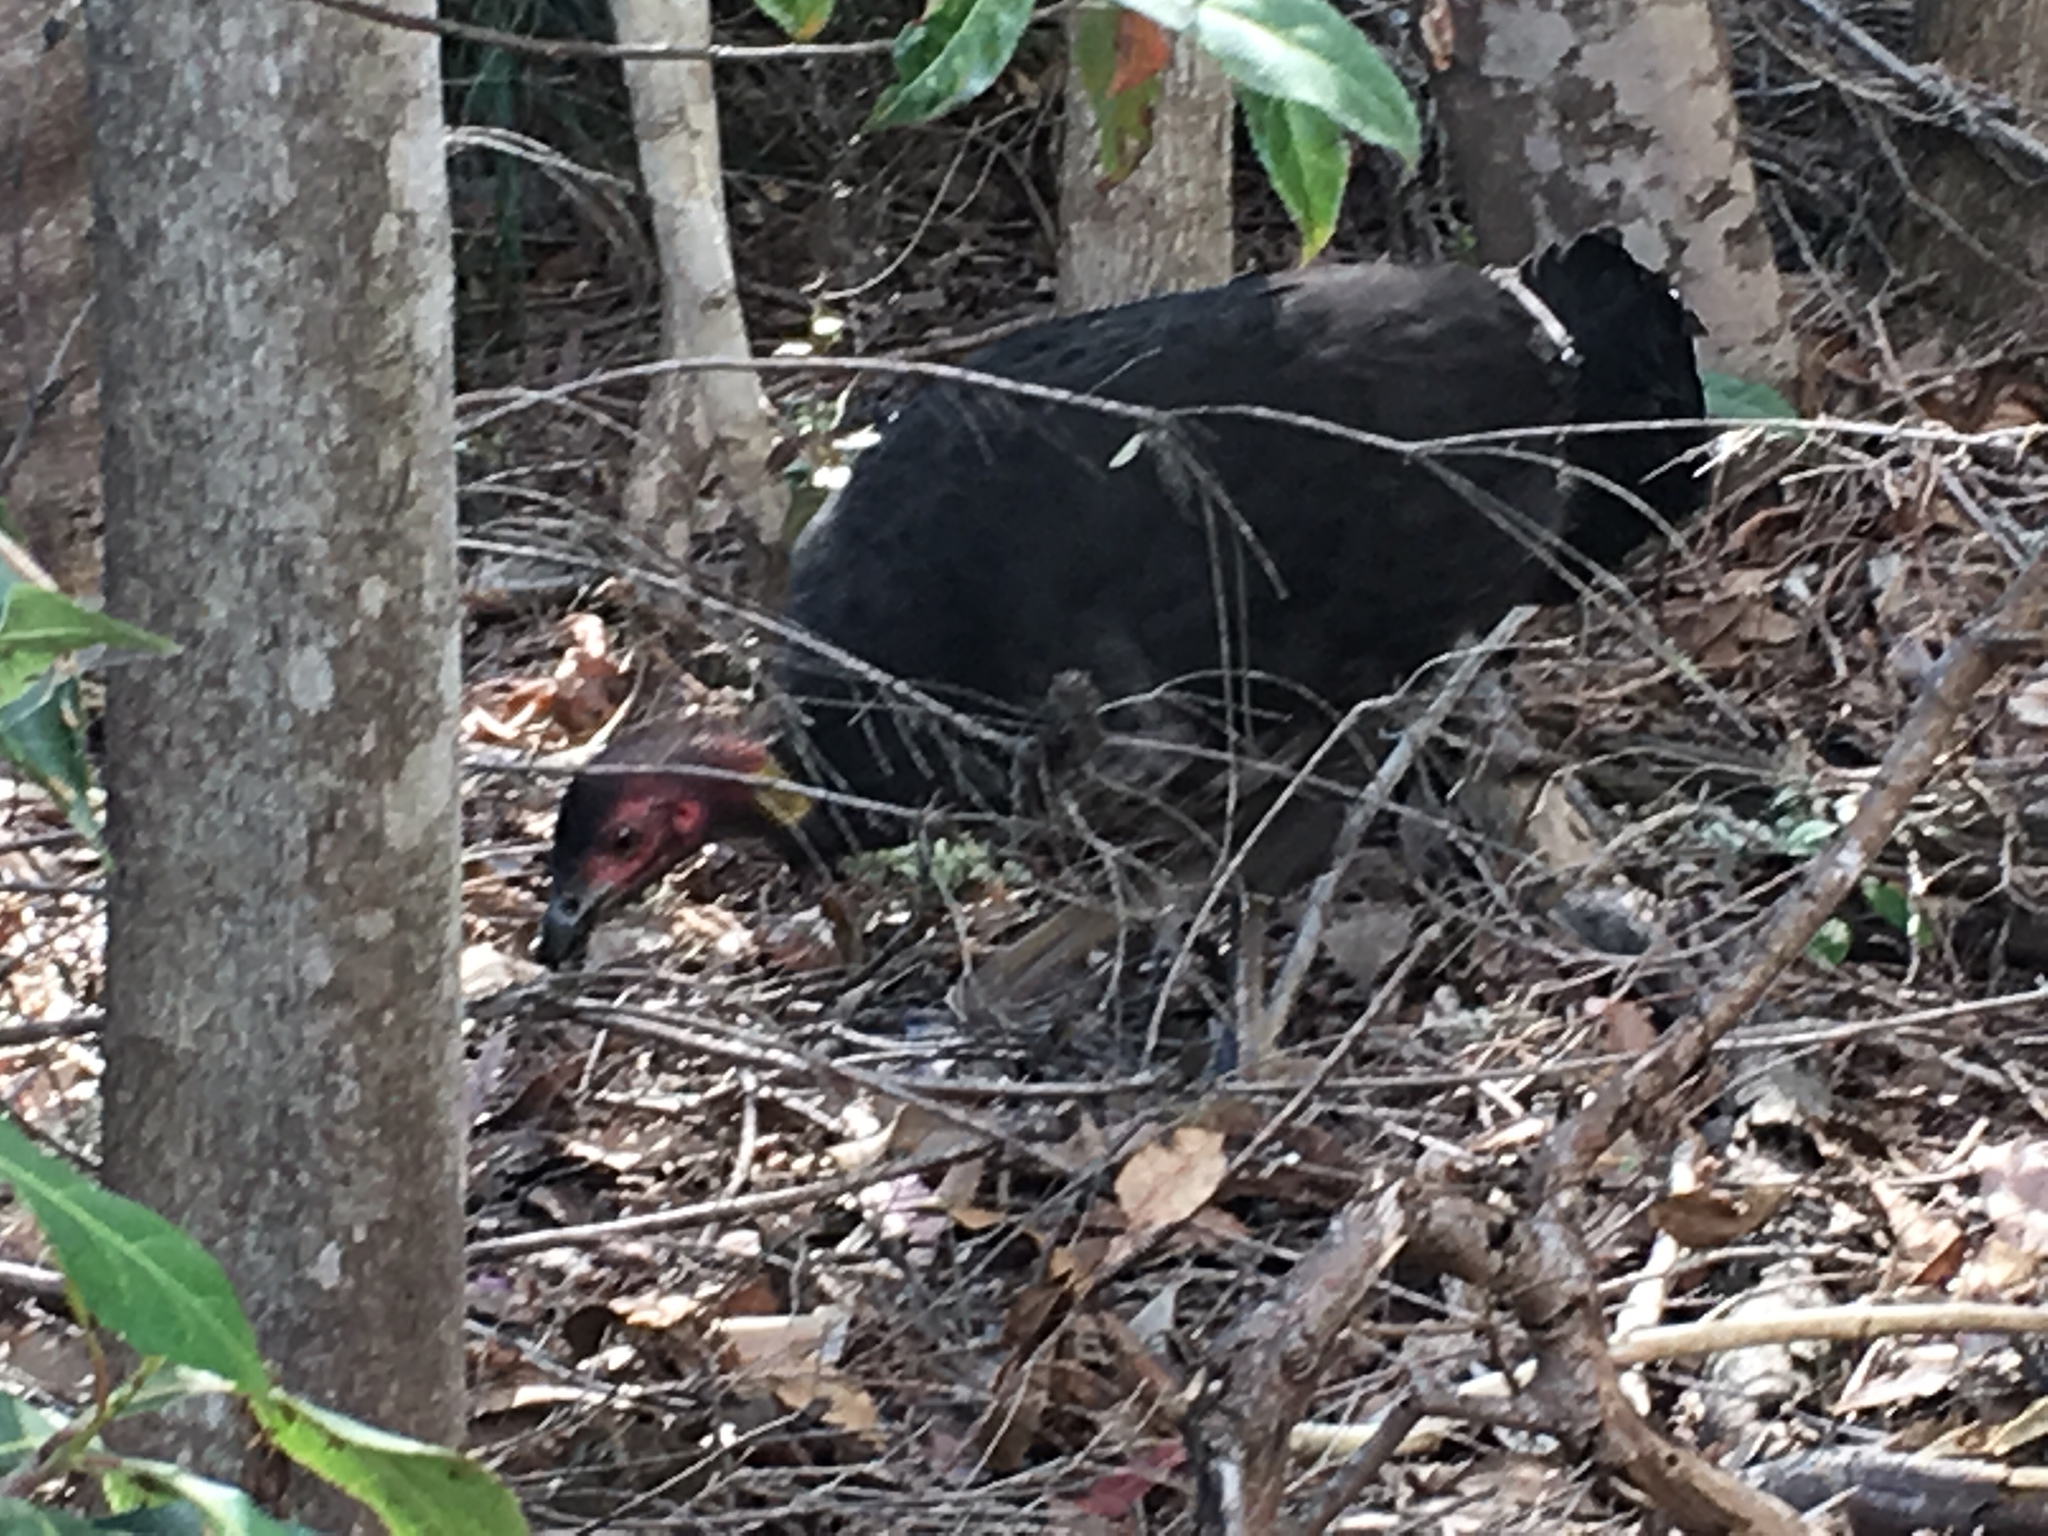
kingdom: Animalia
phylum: Chordata
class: Aves
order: Galliformes
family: Megapodiidae
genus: Alectura
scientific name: Alectura lathami
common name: Australian brushturkey
